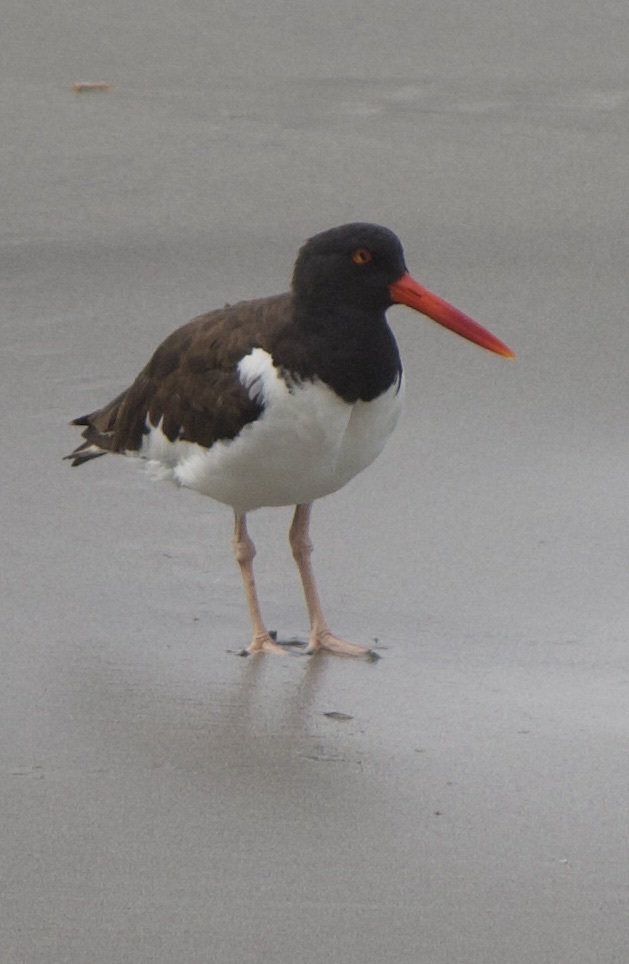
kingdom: Animalia
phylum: Chordata
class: Aves
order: Charadriiformes
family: Haematopodidae
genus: Haematopus
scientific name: Haematopus palliatus
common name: American oystercatcher
